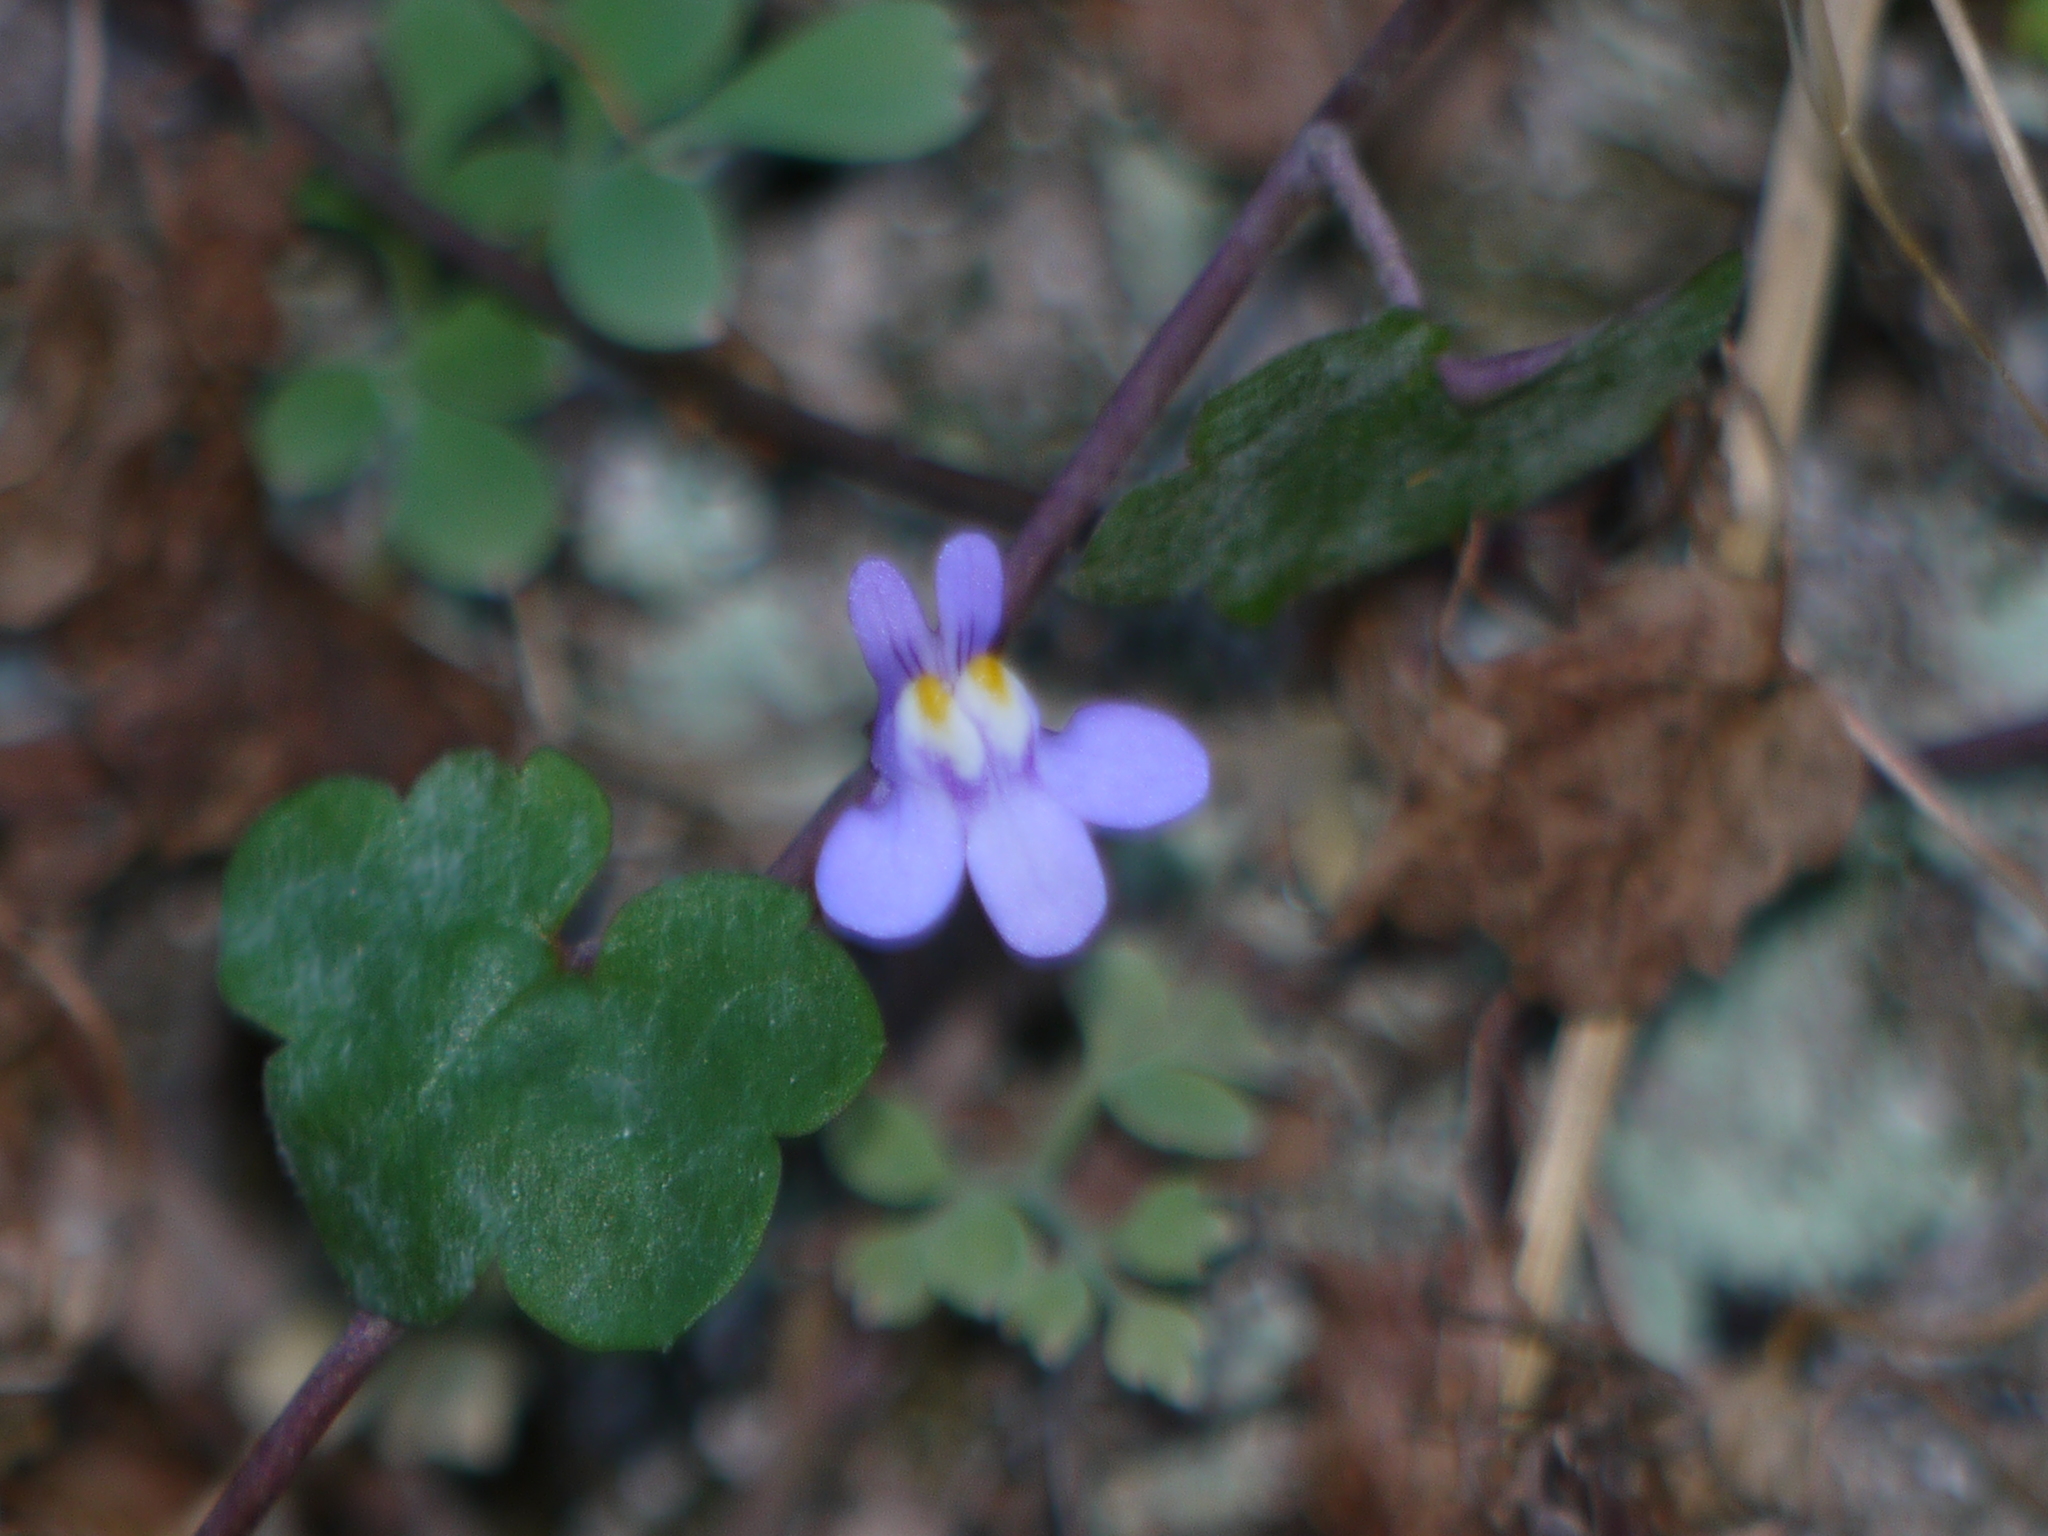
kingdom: Plantae
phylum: Tracheophyta
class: Magnoliopsida
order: Lamiales
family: Plantaginaceae
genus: Cymbalaria
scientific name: Cymbalaria muralis
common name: Ivy-leaved toadflax
